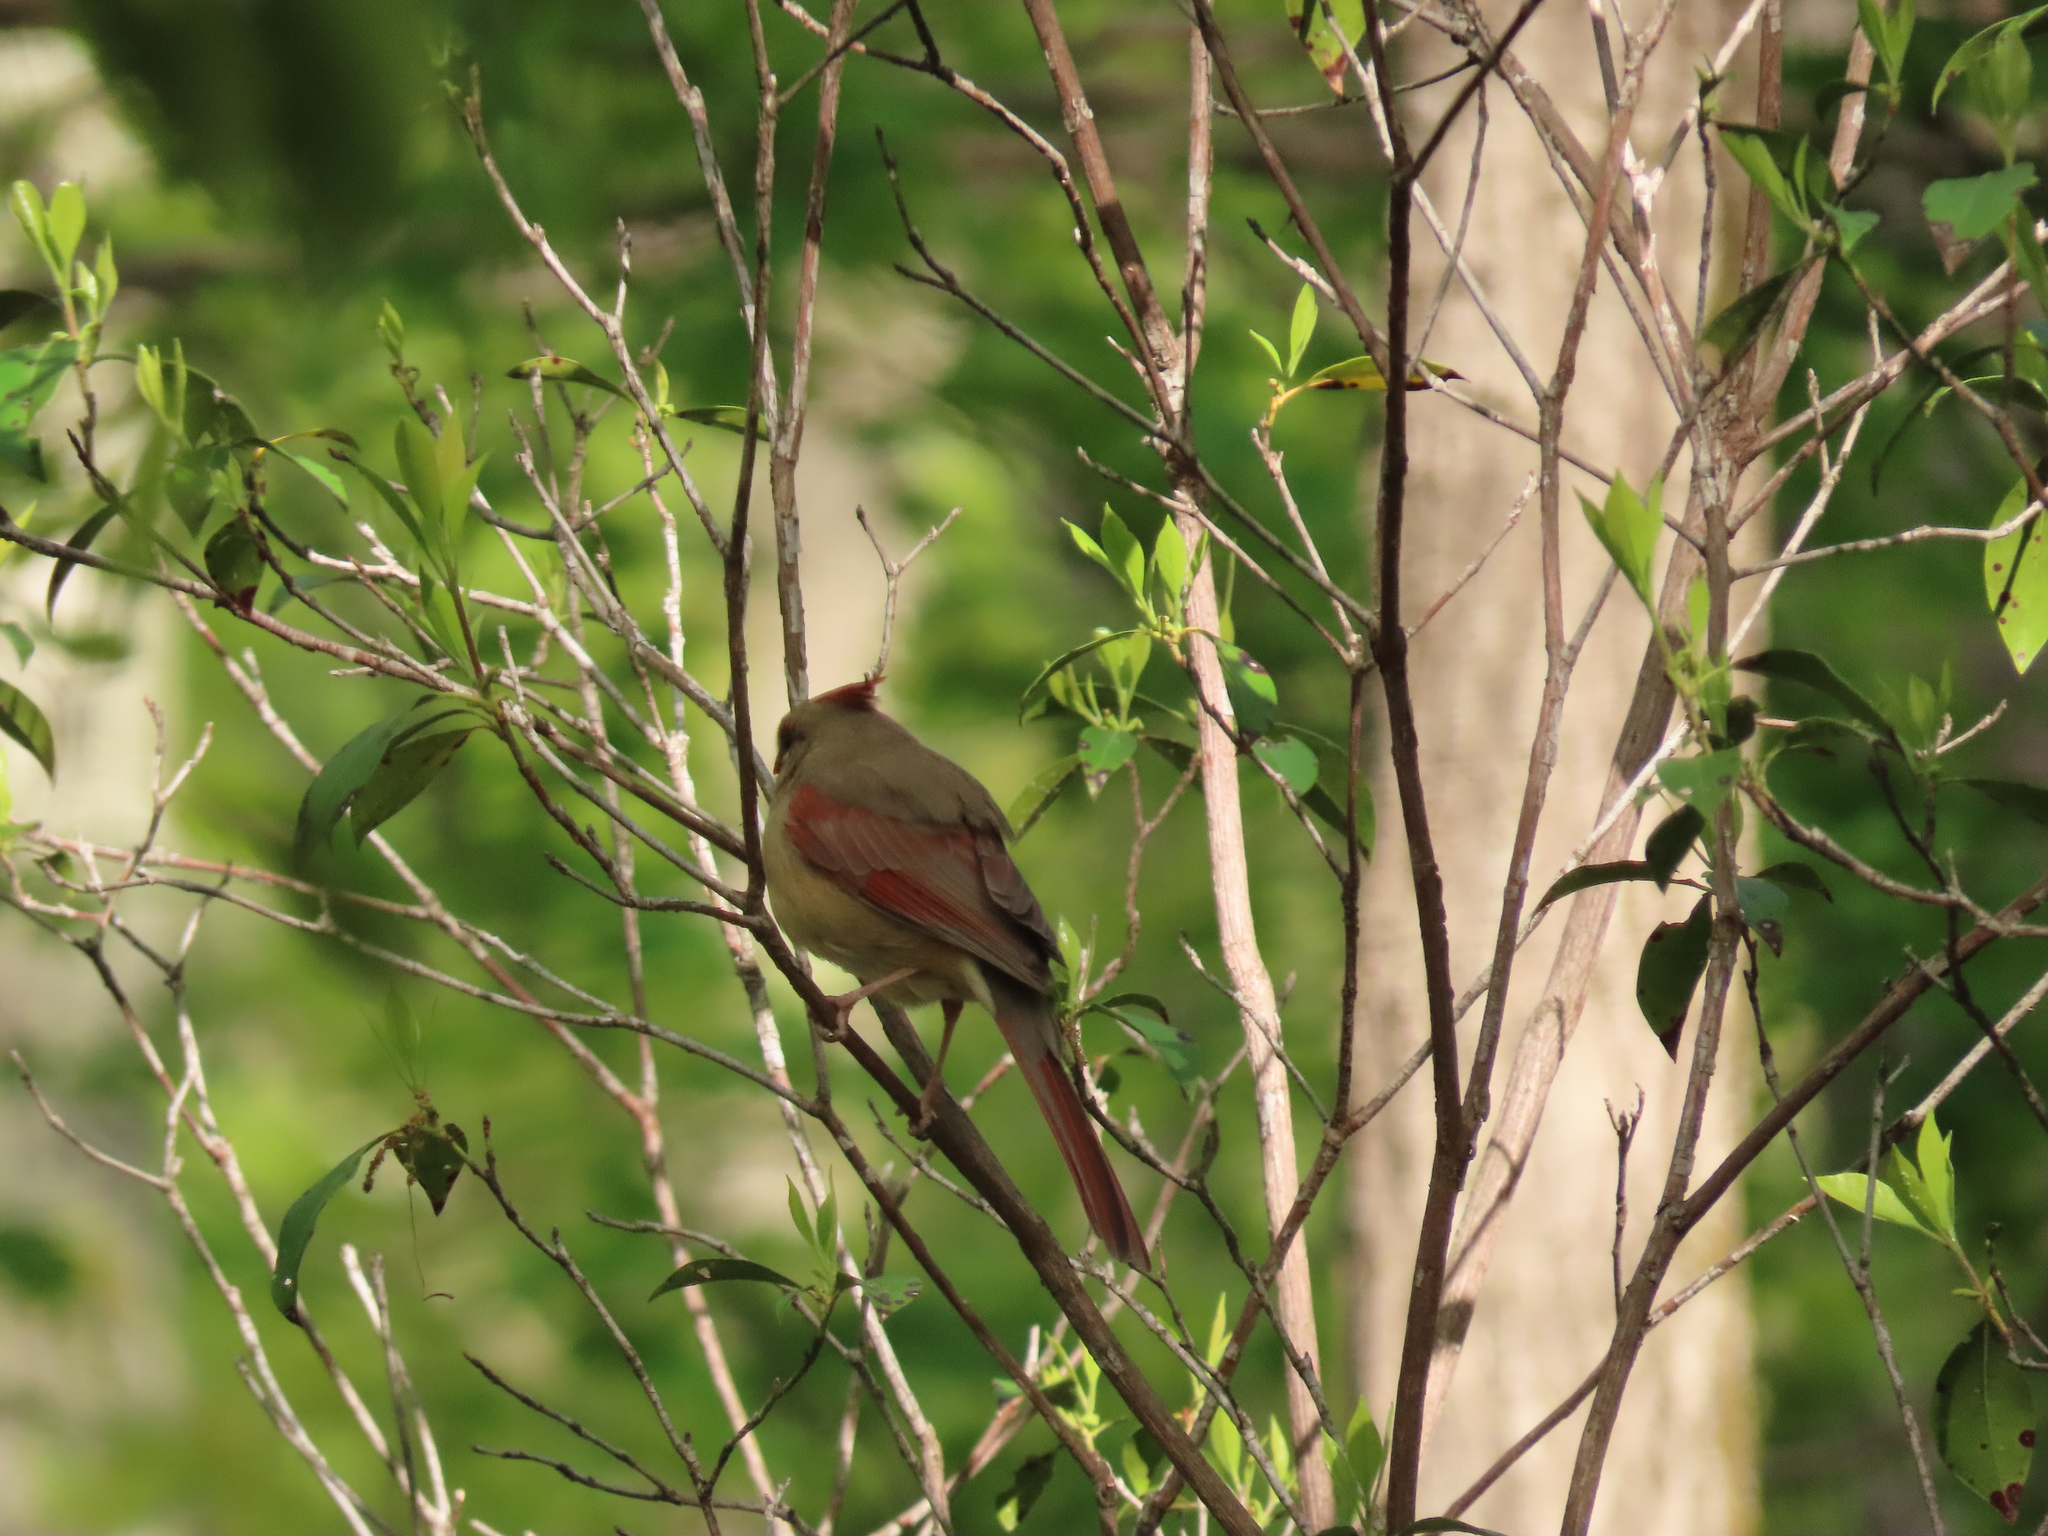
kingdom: Animalia
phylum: Chordata
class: Aves
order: Passeriformes
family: Cardinalidae
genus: Cardinalis
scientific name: Cardinalis cardinalis
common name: Northern cardinal
